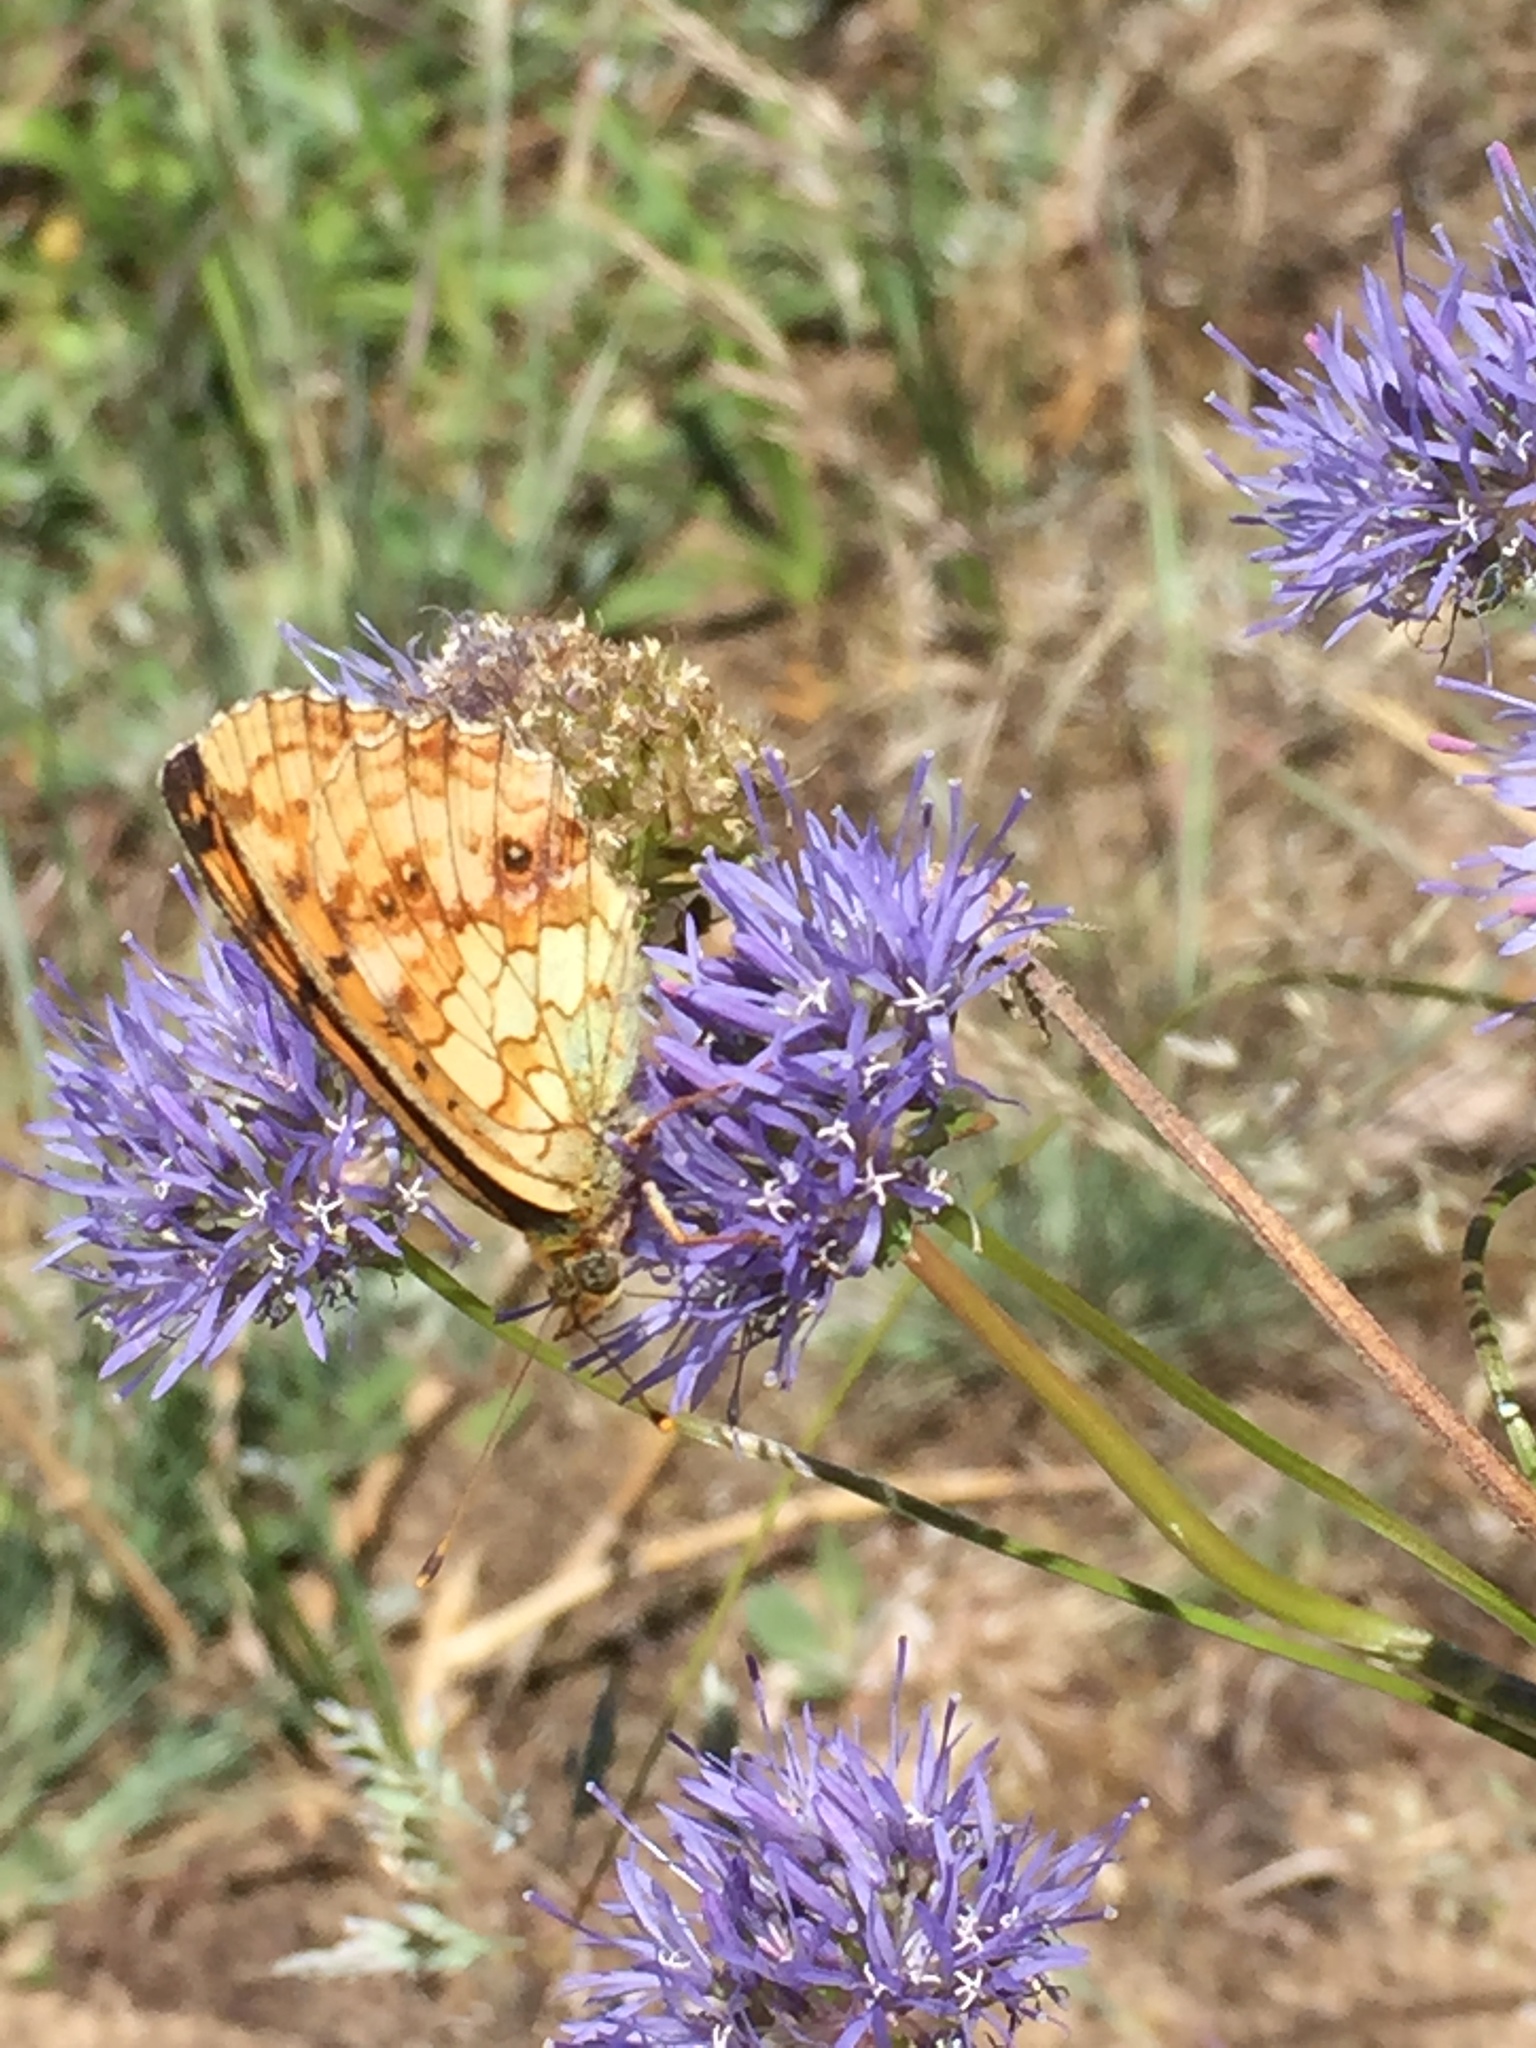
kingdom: Animalia
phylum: Arthropoda
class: Insecta
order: Lepidoptera
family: Nymphalidae
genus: Brenthis
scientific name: Brenthis ino
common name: Lesser marbled fritillary
